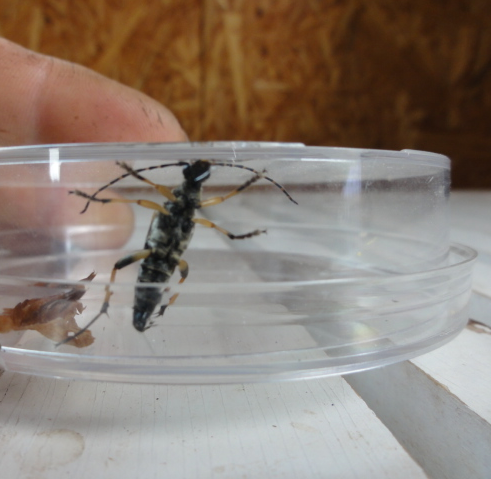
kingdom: Animalia
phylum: Arthropoda
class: Insecta
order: Coleoptera
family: Cerambycidae
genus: Rutpela
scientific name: Rutpela maculata
